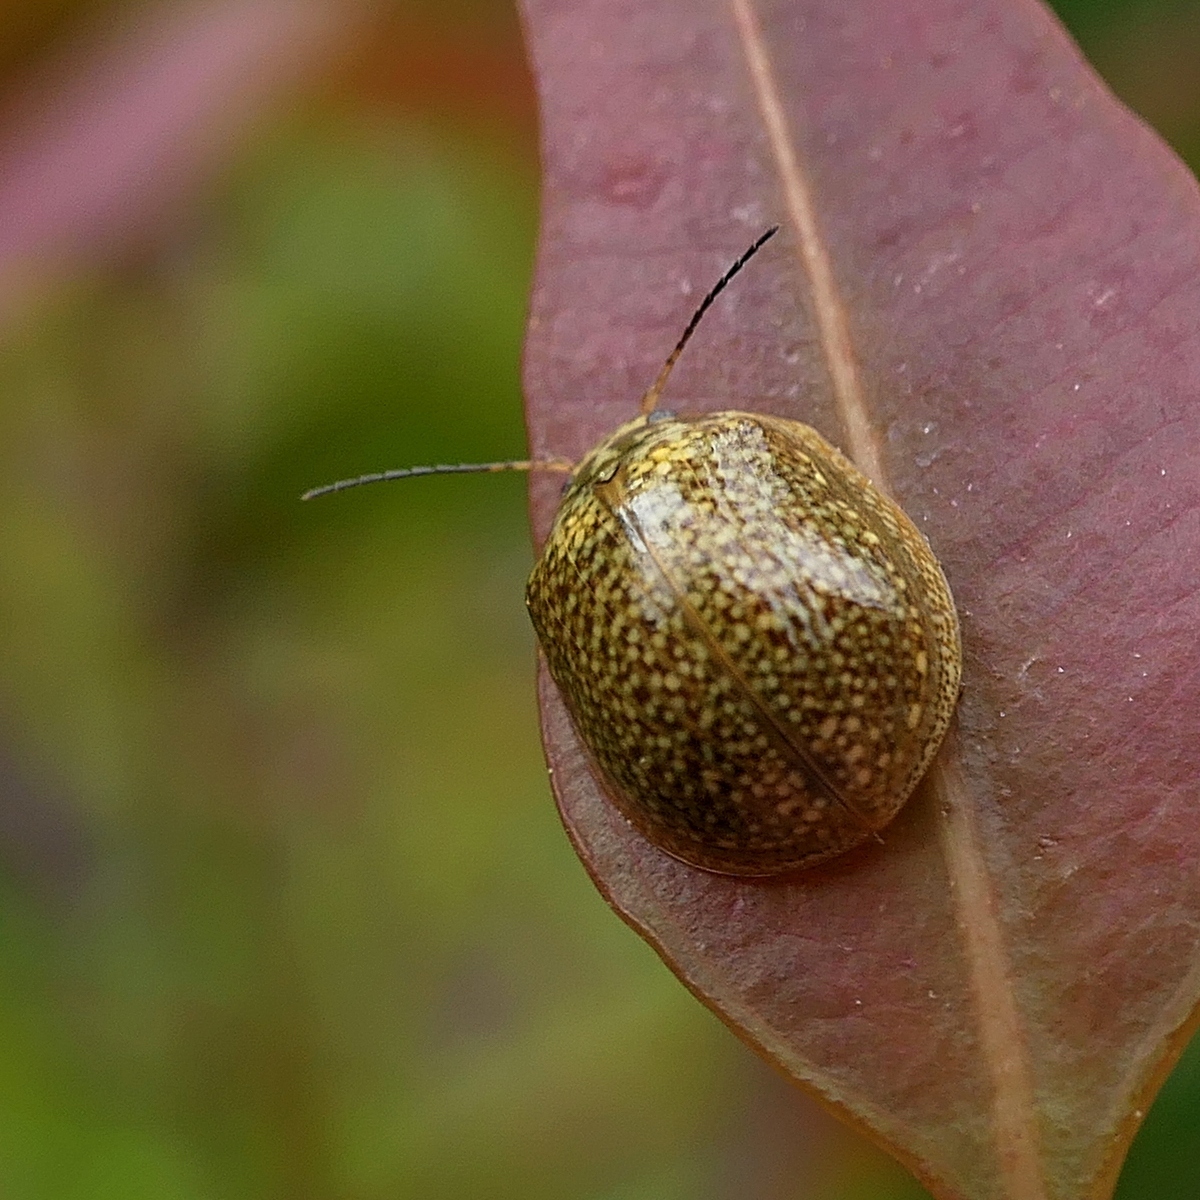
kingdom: Animalia
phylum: Arthropoda
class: Insecta
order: Coleoptera
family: Chrysomelidae
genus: Paropsisterna
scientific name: Paropsisterna cloelia
